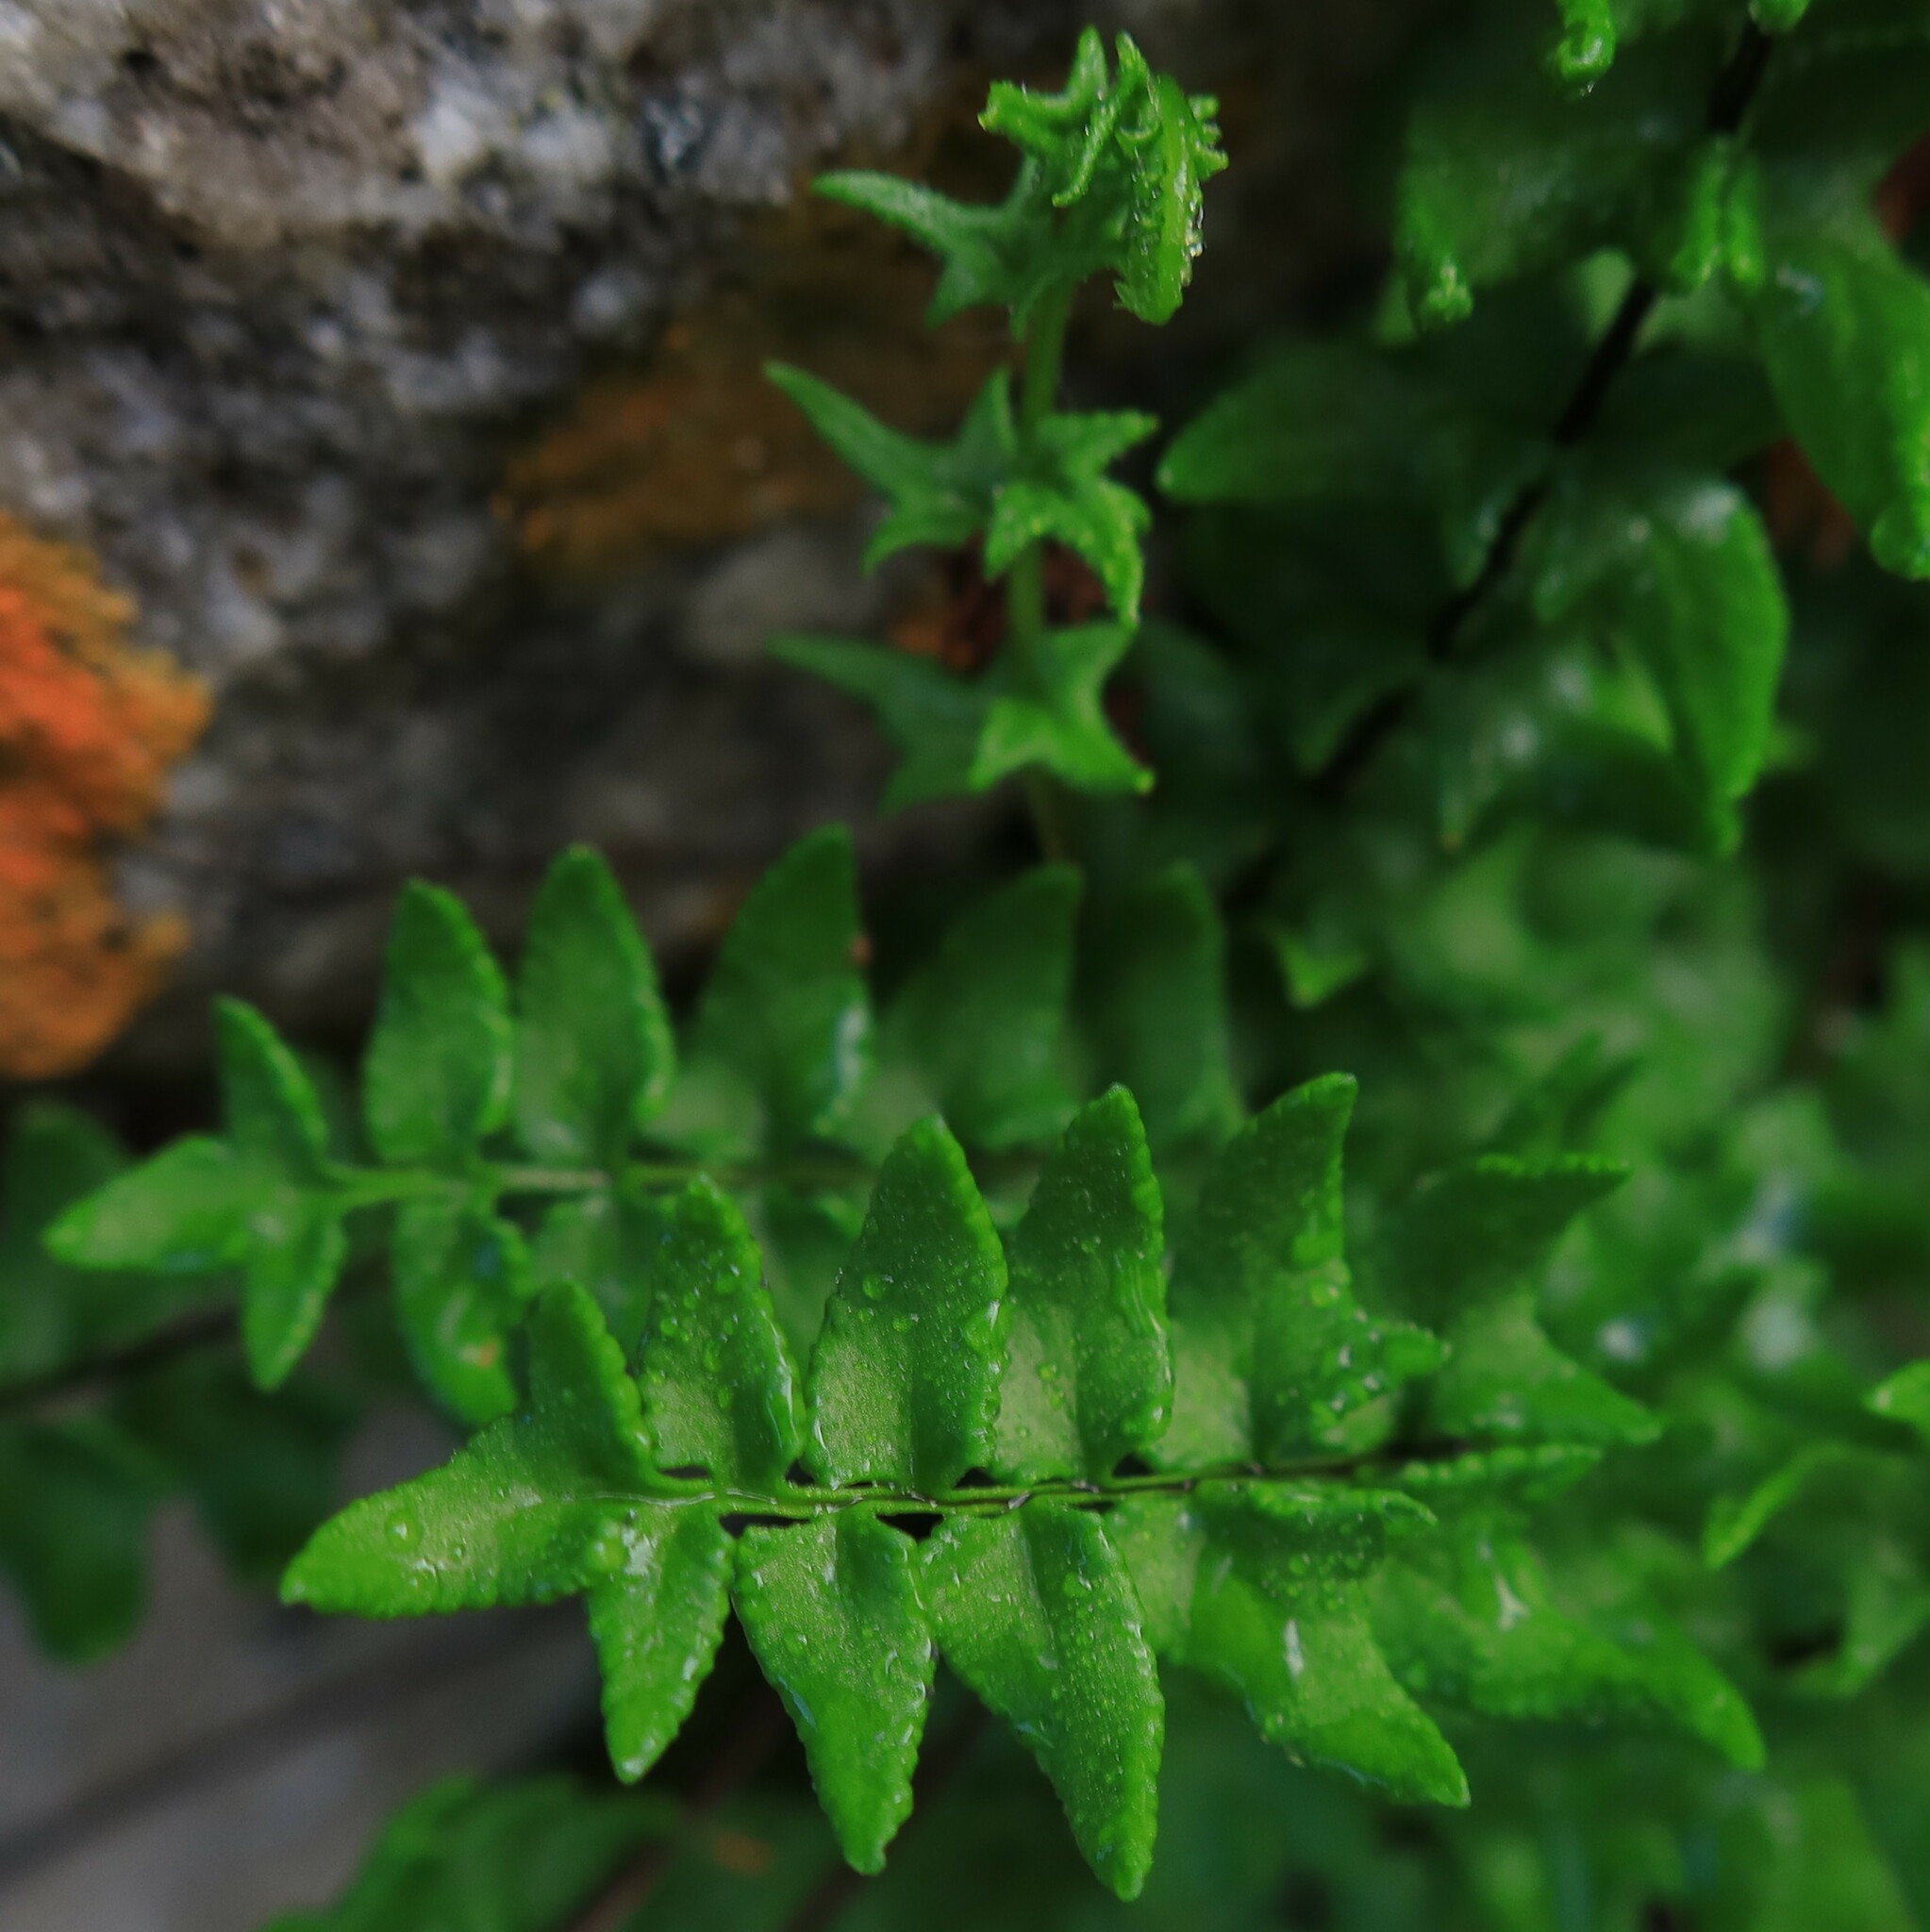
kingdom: Plantae
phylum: Tracheophyta
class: Polypodiopsida
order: Polypodiales
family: Pteridaceae
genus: Cheilanthes
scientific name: Cheilanthes hastata
